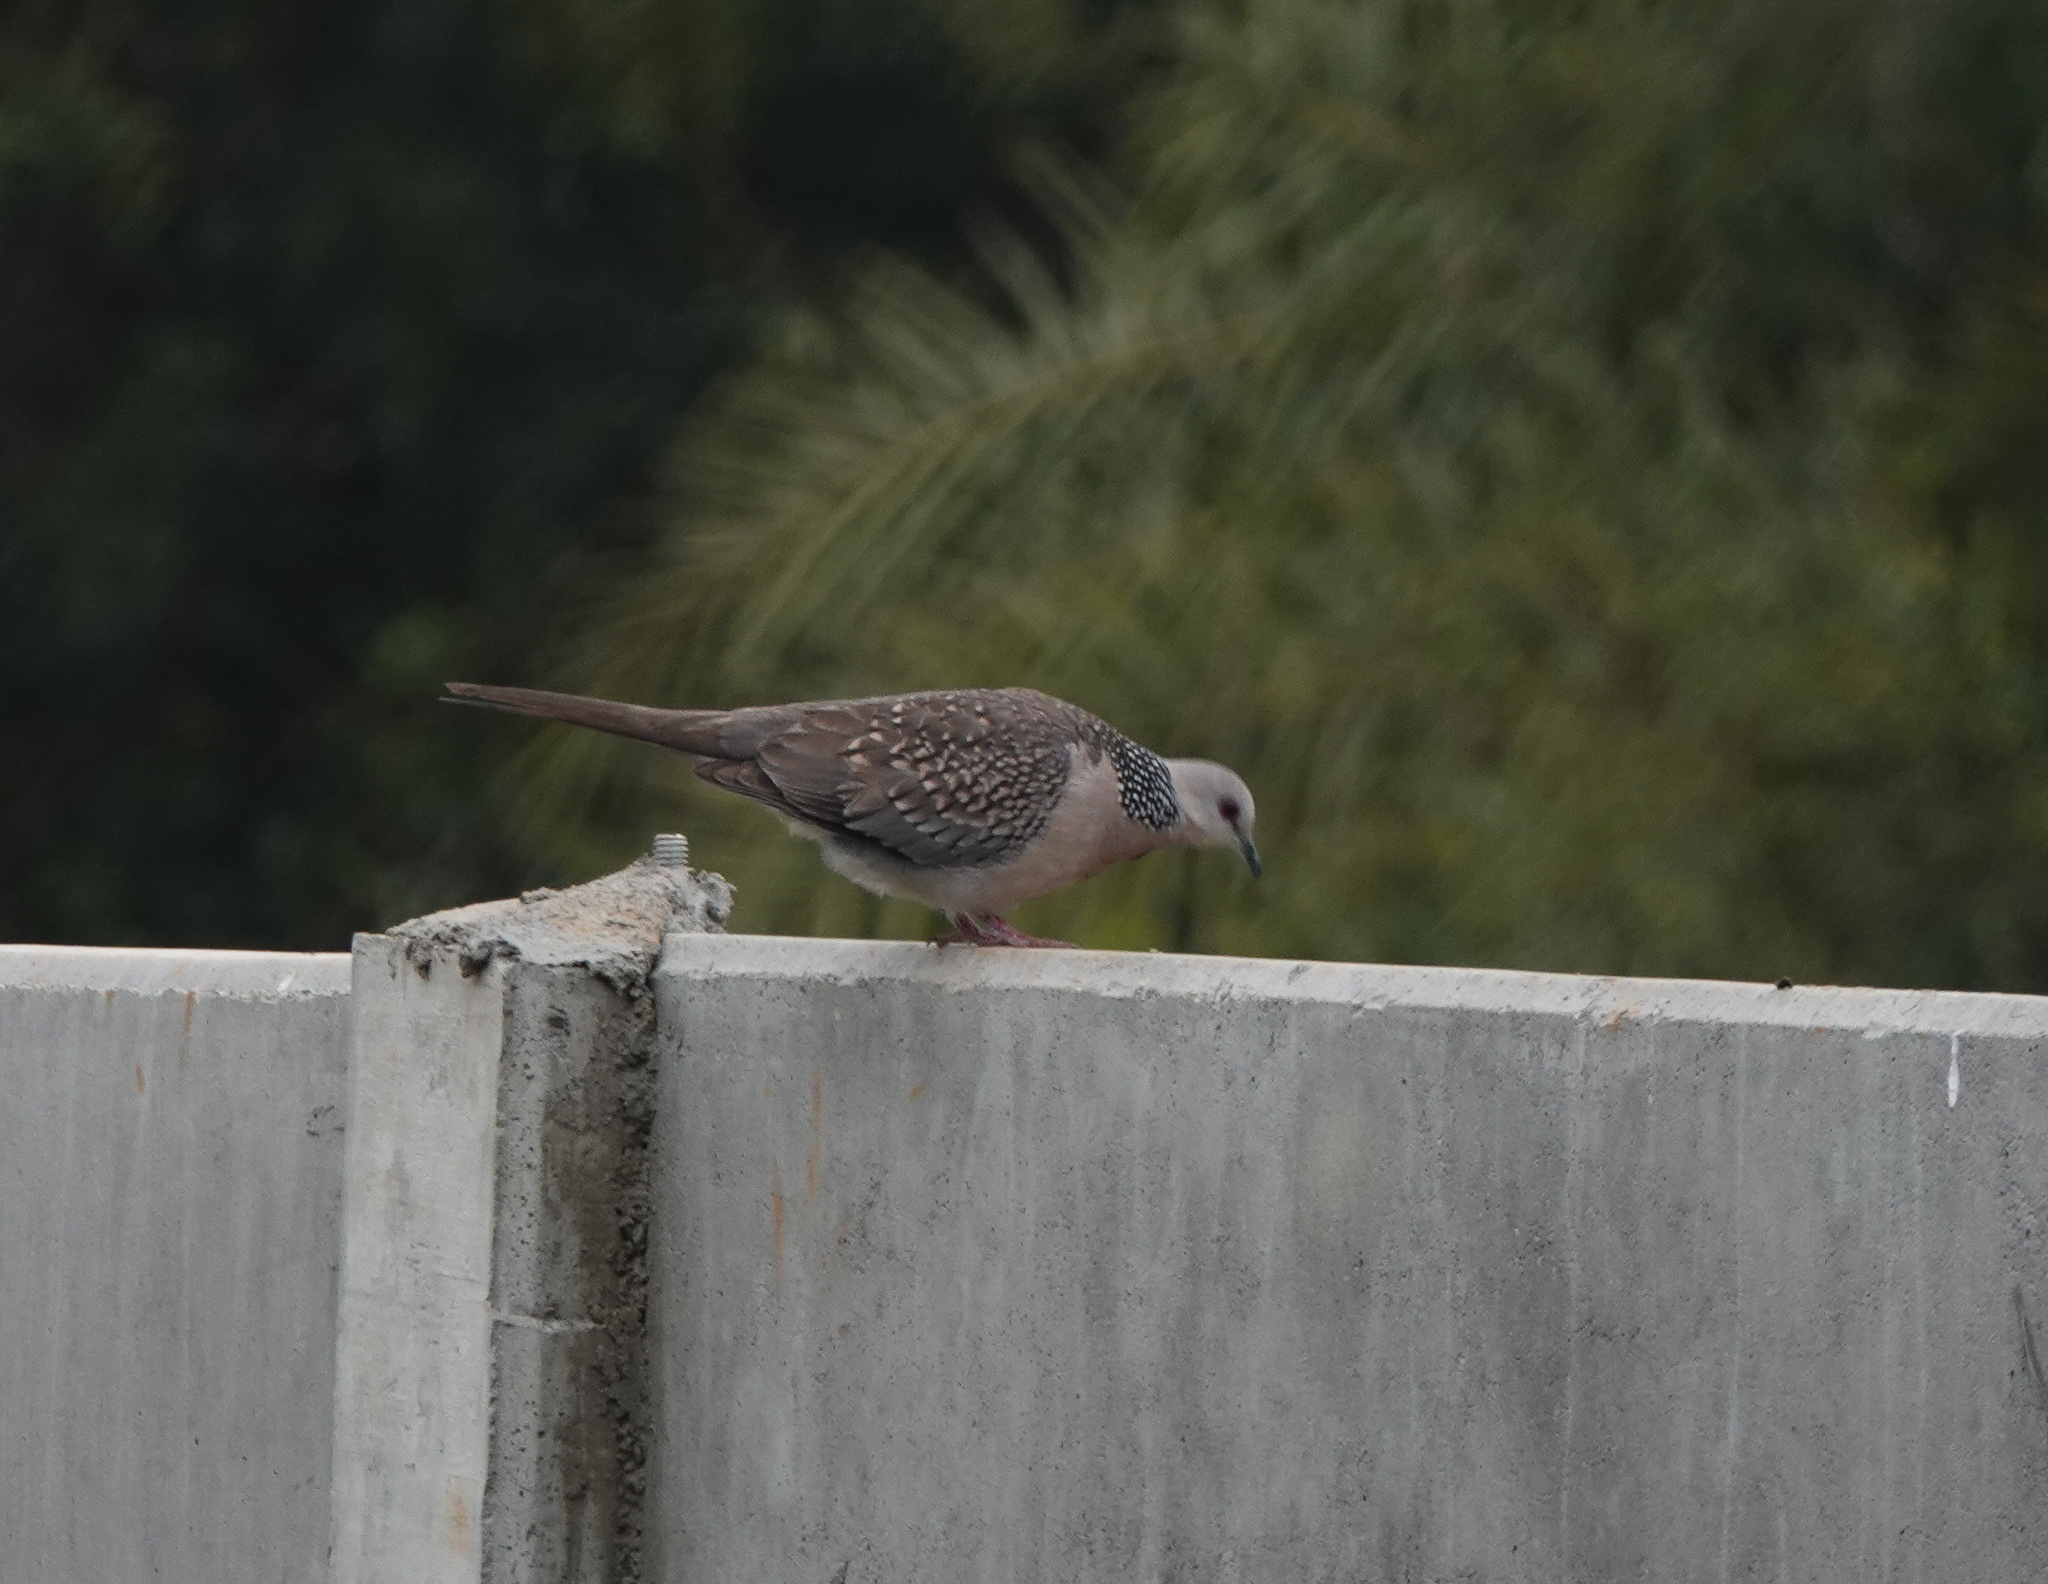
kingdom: Animalia
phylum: Chordata
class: Aves
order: Columbiformes
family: Columbidae
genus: Spilopelia
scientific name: Spilopelia chinensis
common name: Spotted dove
